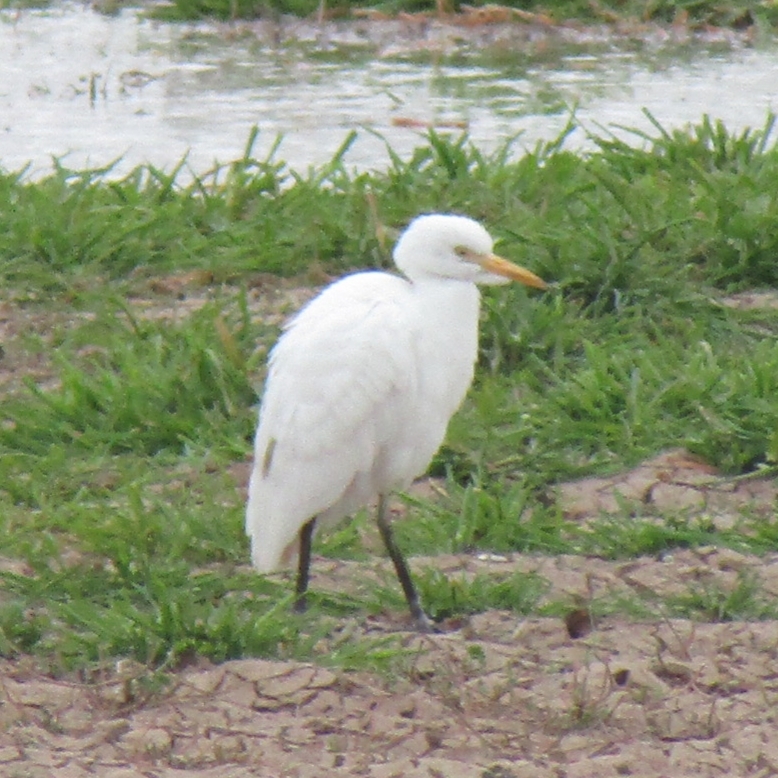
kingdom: Animalia
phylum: Chordata
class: Aves
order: Pelecaniformes
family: Ardeidae
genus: Bubulcus
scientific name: Bubulcus ibis
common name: Cattle egret
